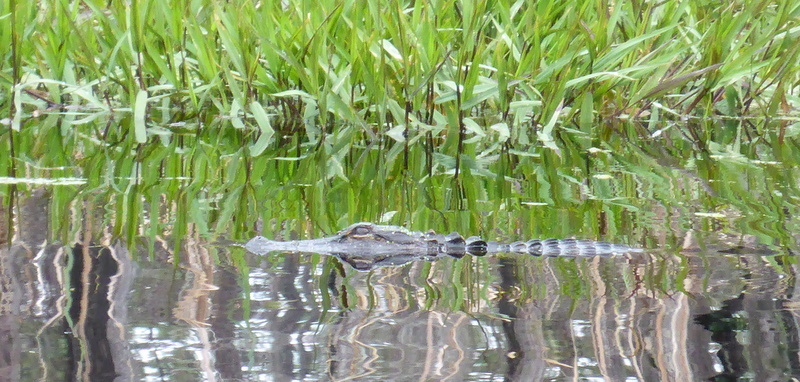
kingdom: Animalia
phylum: Chordata
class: Crocodylia
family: Alligatoridae
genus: Alligator
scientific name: Alligator mississippiensis
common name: American alligator
